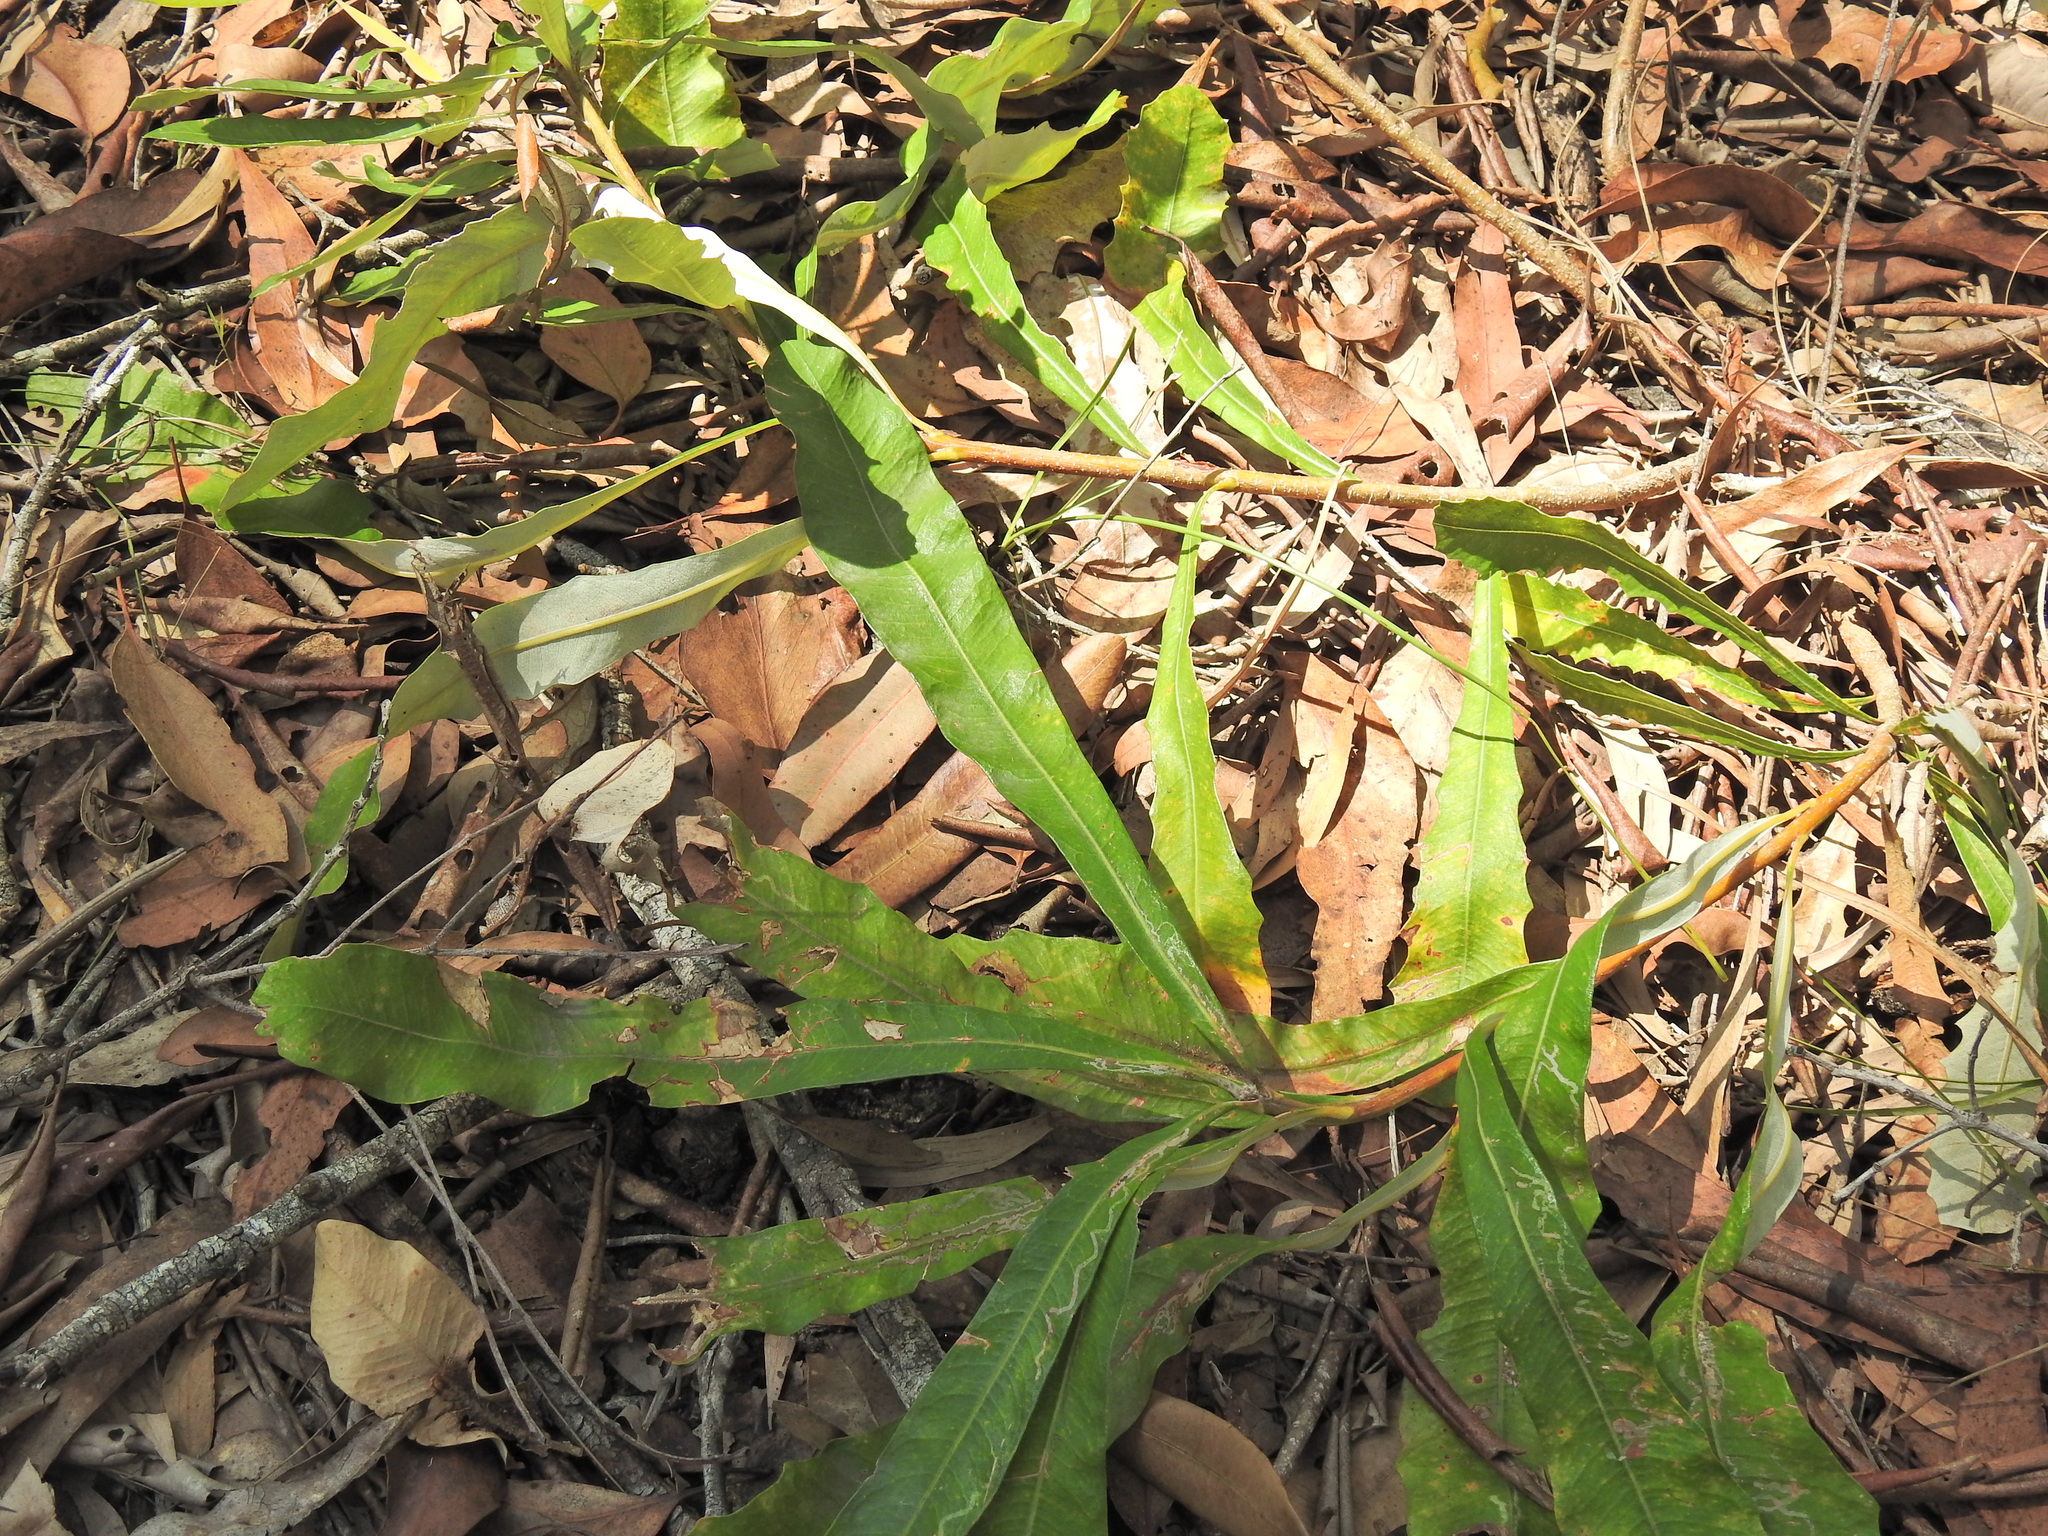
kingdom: Plantae
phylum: Tracheophyta
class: Magnoliopsida
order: Proteales
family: Proteaceae
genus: Banksia
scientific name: Banksia integrifolia
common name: White-honeysuckle
